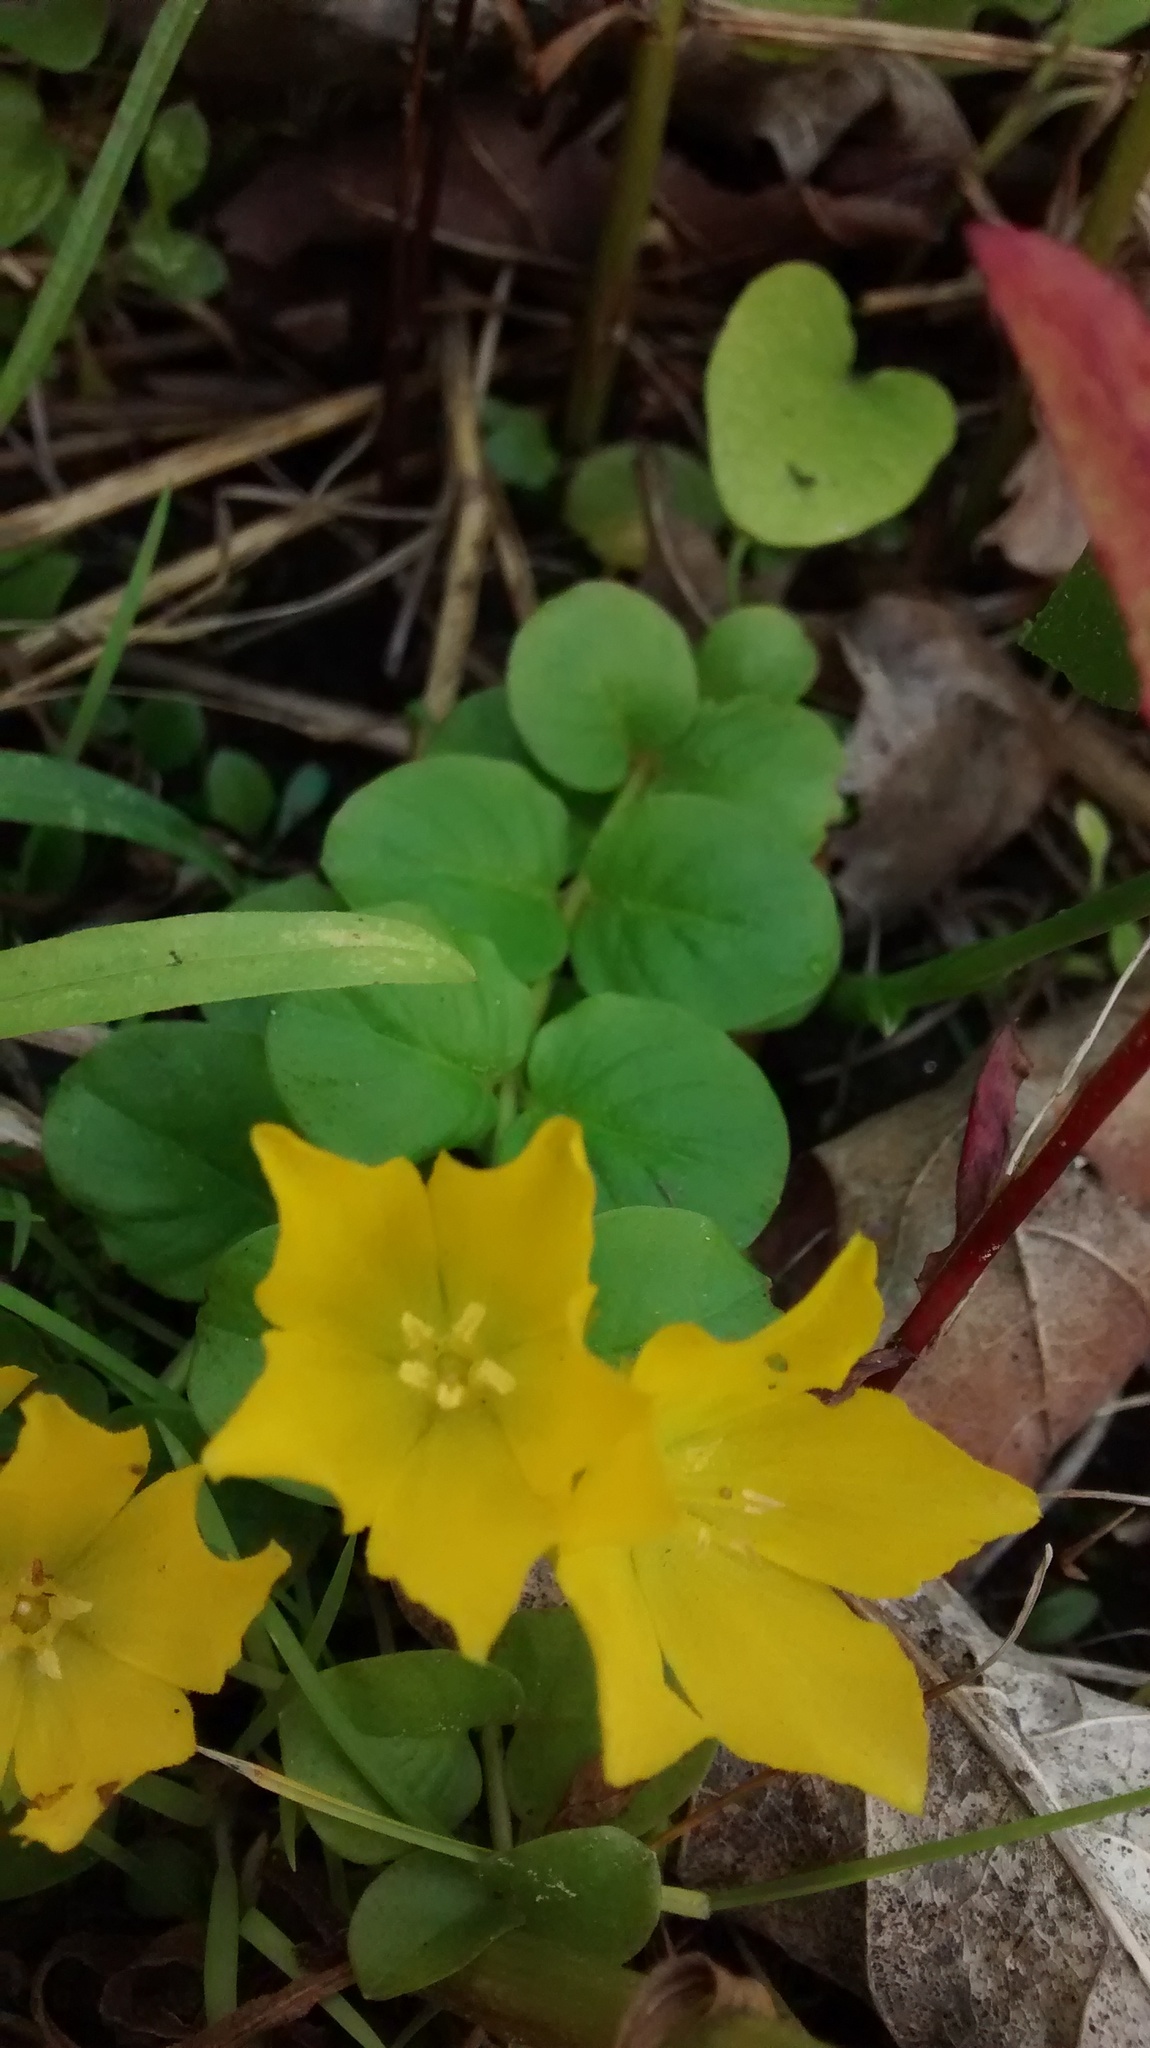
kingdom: Plantae
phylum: Tracheophyta
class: Magnoliopsida
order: Ericales
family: Primulaceae
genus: Lysimachia
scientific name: Lysimachia nummularia
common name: Moneywort
